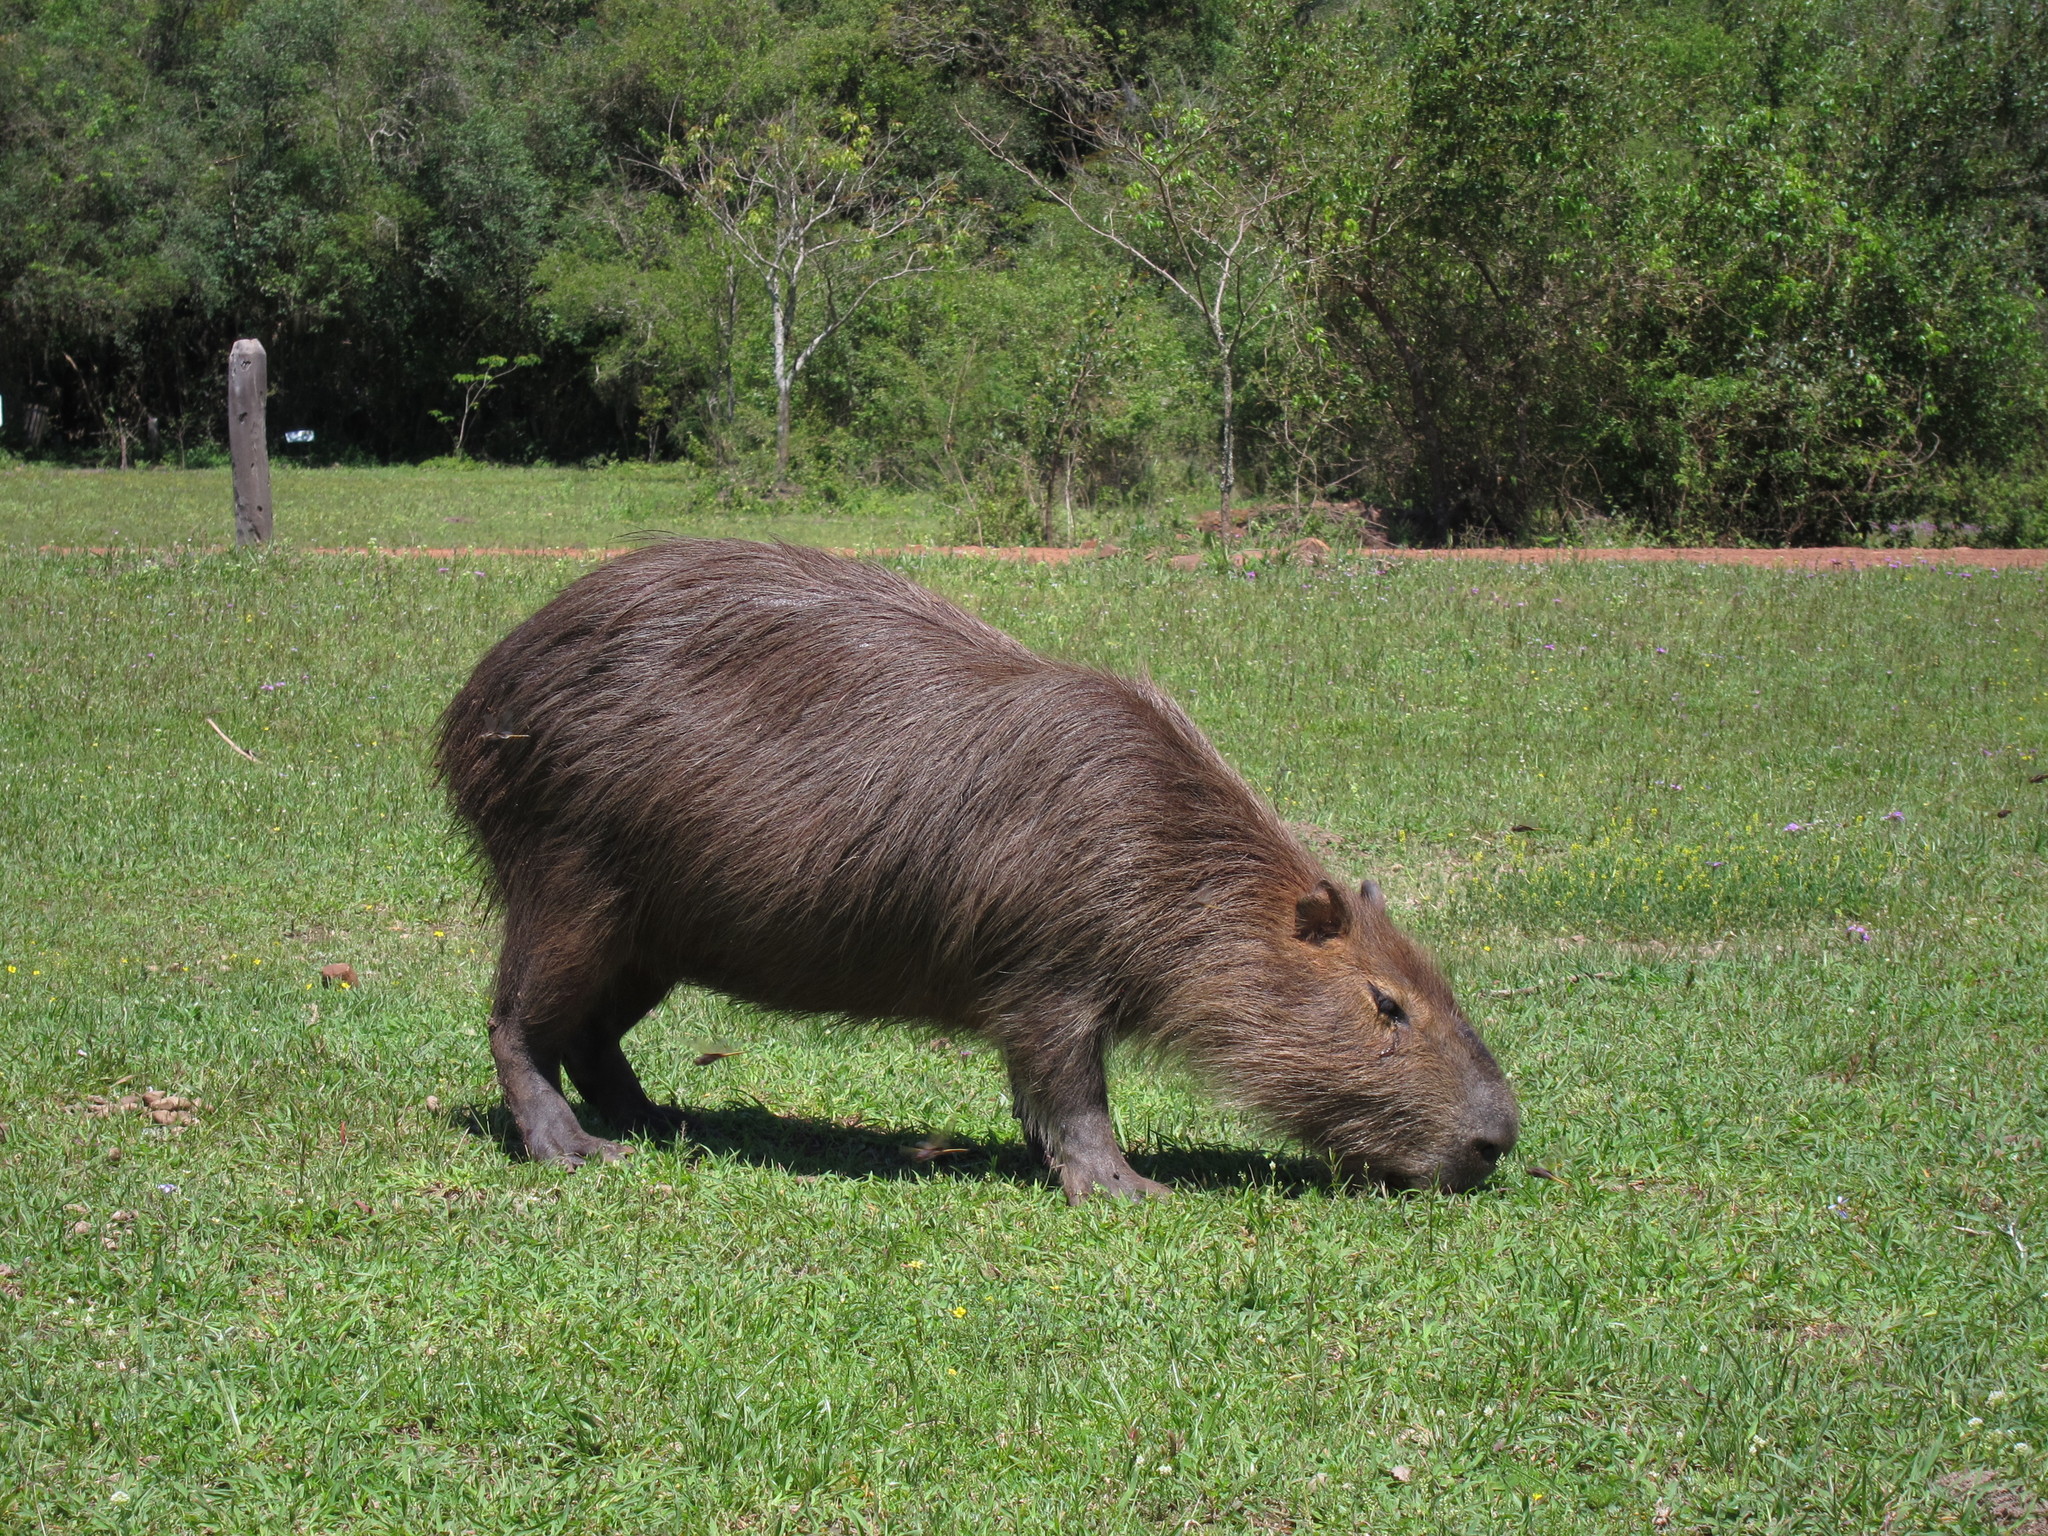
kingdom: Animalia
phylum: Chordata
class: Mammalia
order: Rodentia
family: Caviidae
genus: Hydrochoerus
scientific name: Hydrochoerus hydrochaeris
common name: Capybara
